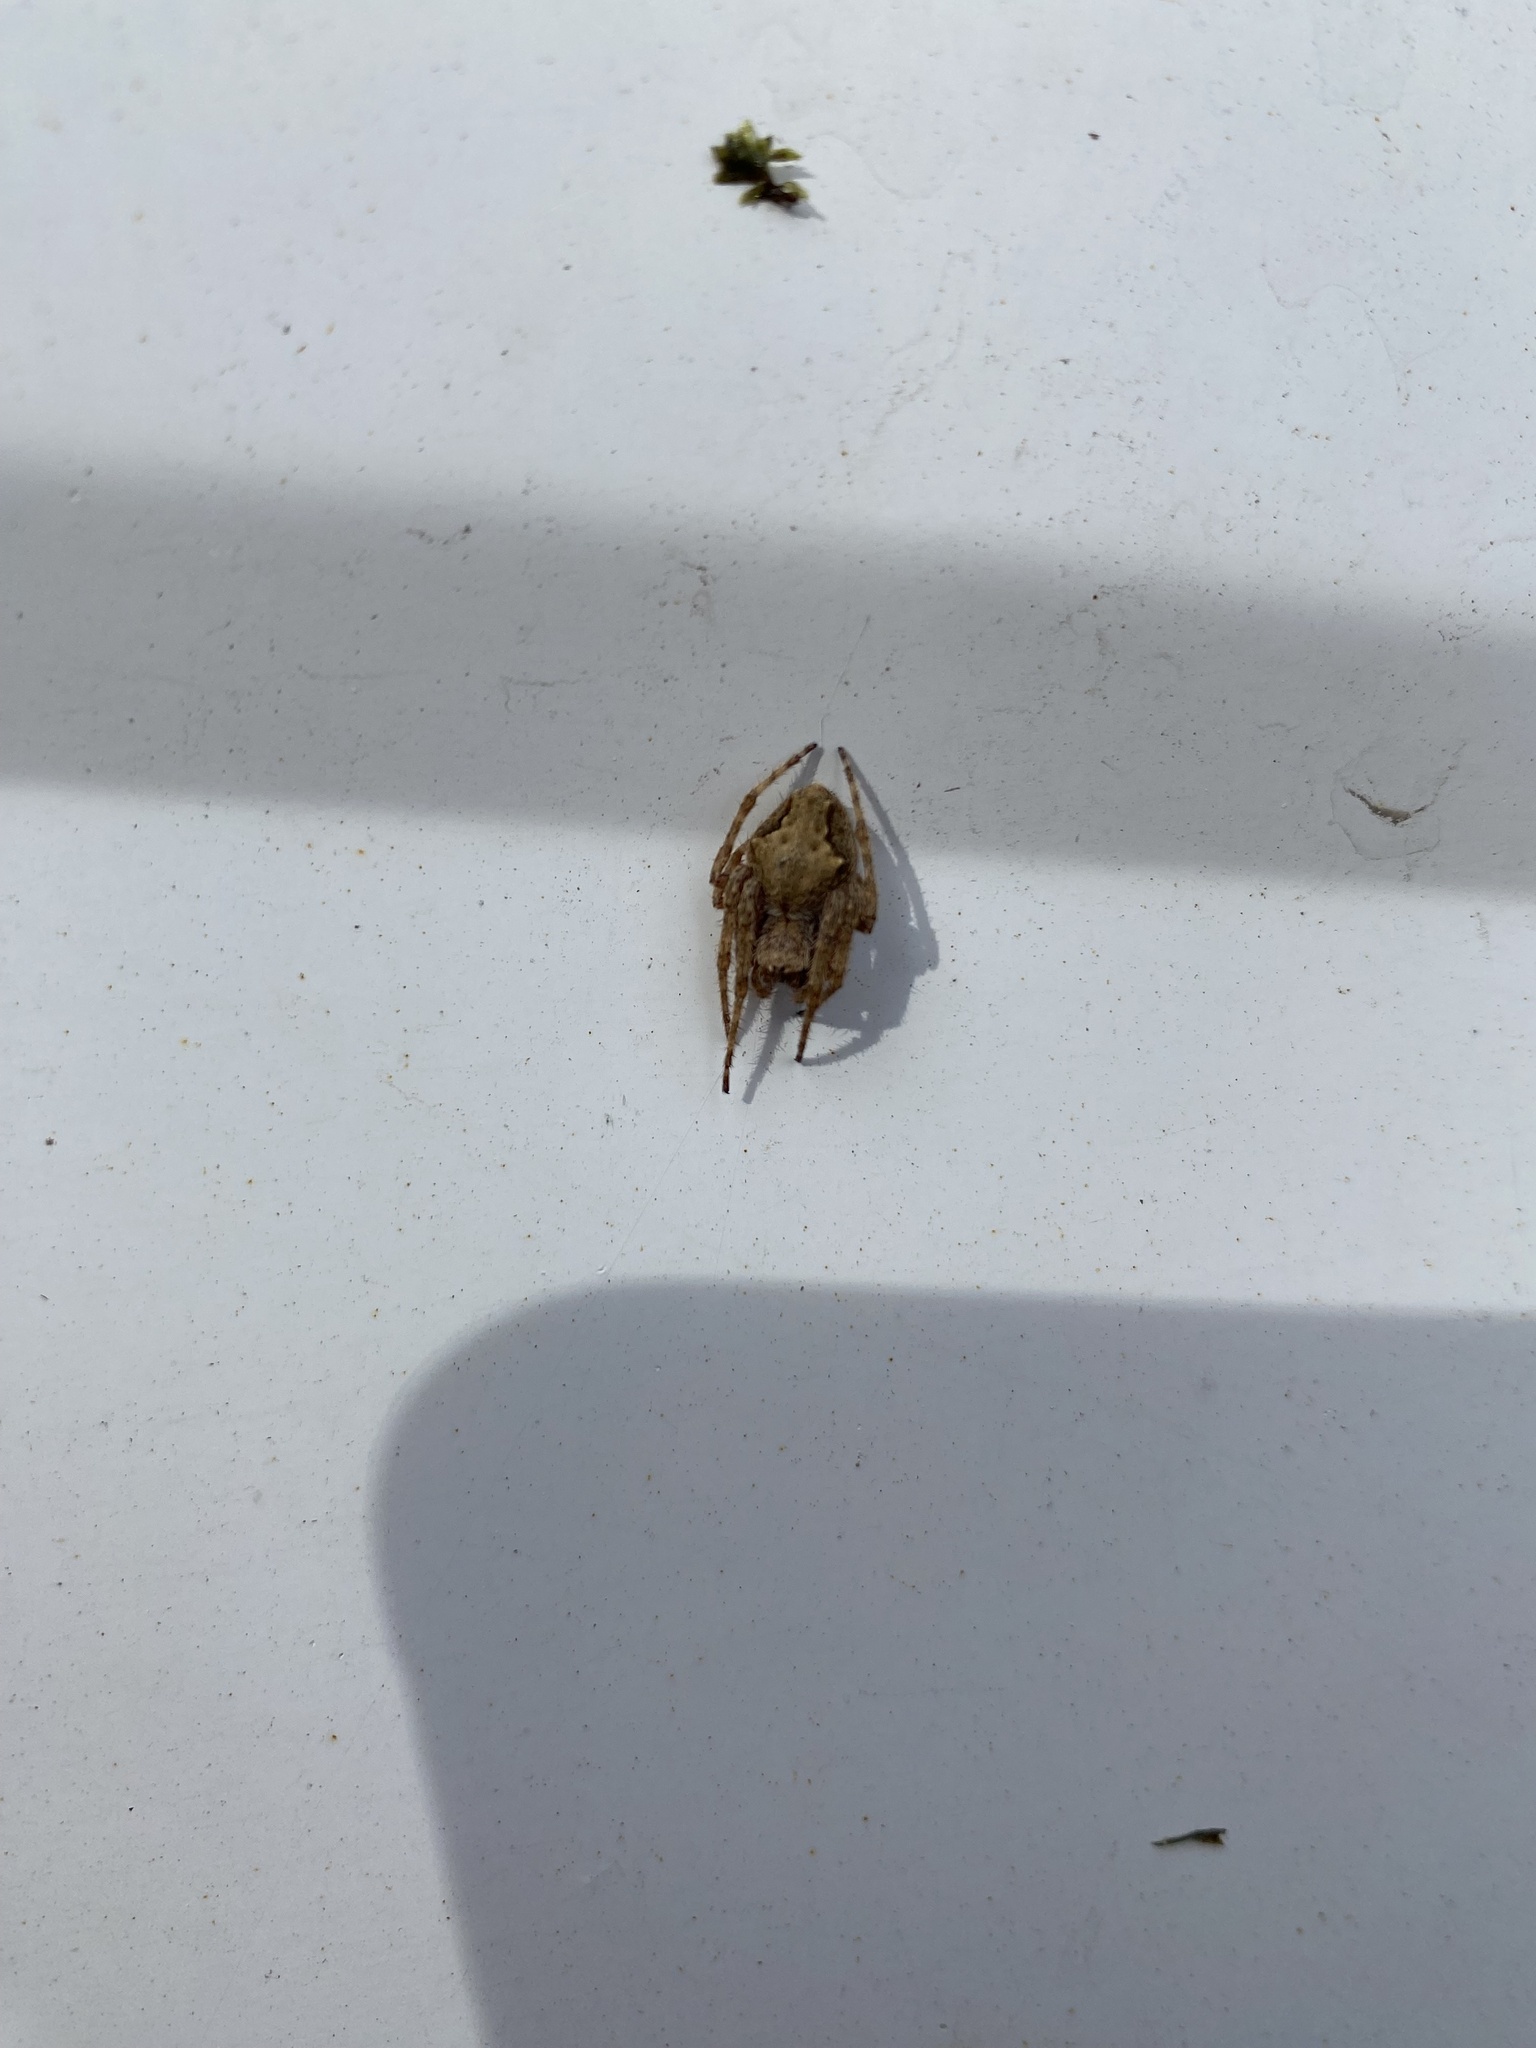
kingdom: Animalia
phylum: Arthropoda
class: Arachnida
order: Araneae
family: Araneidae
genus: Eriophora
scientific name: Eriophora pustulosa
